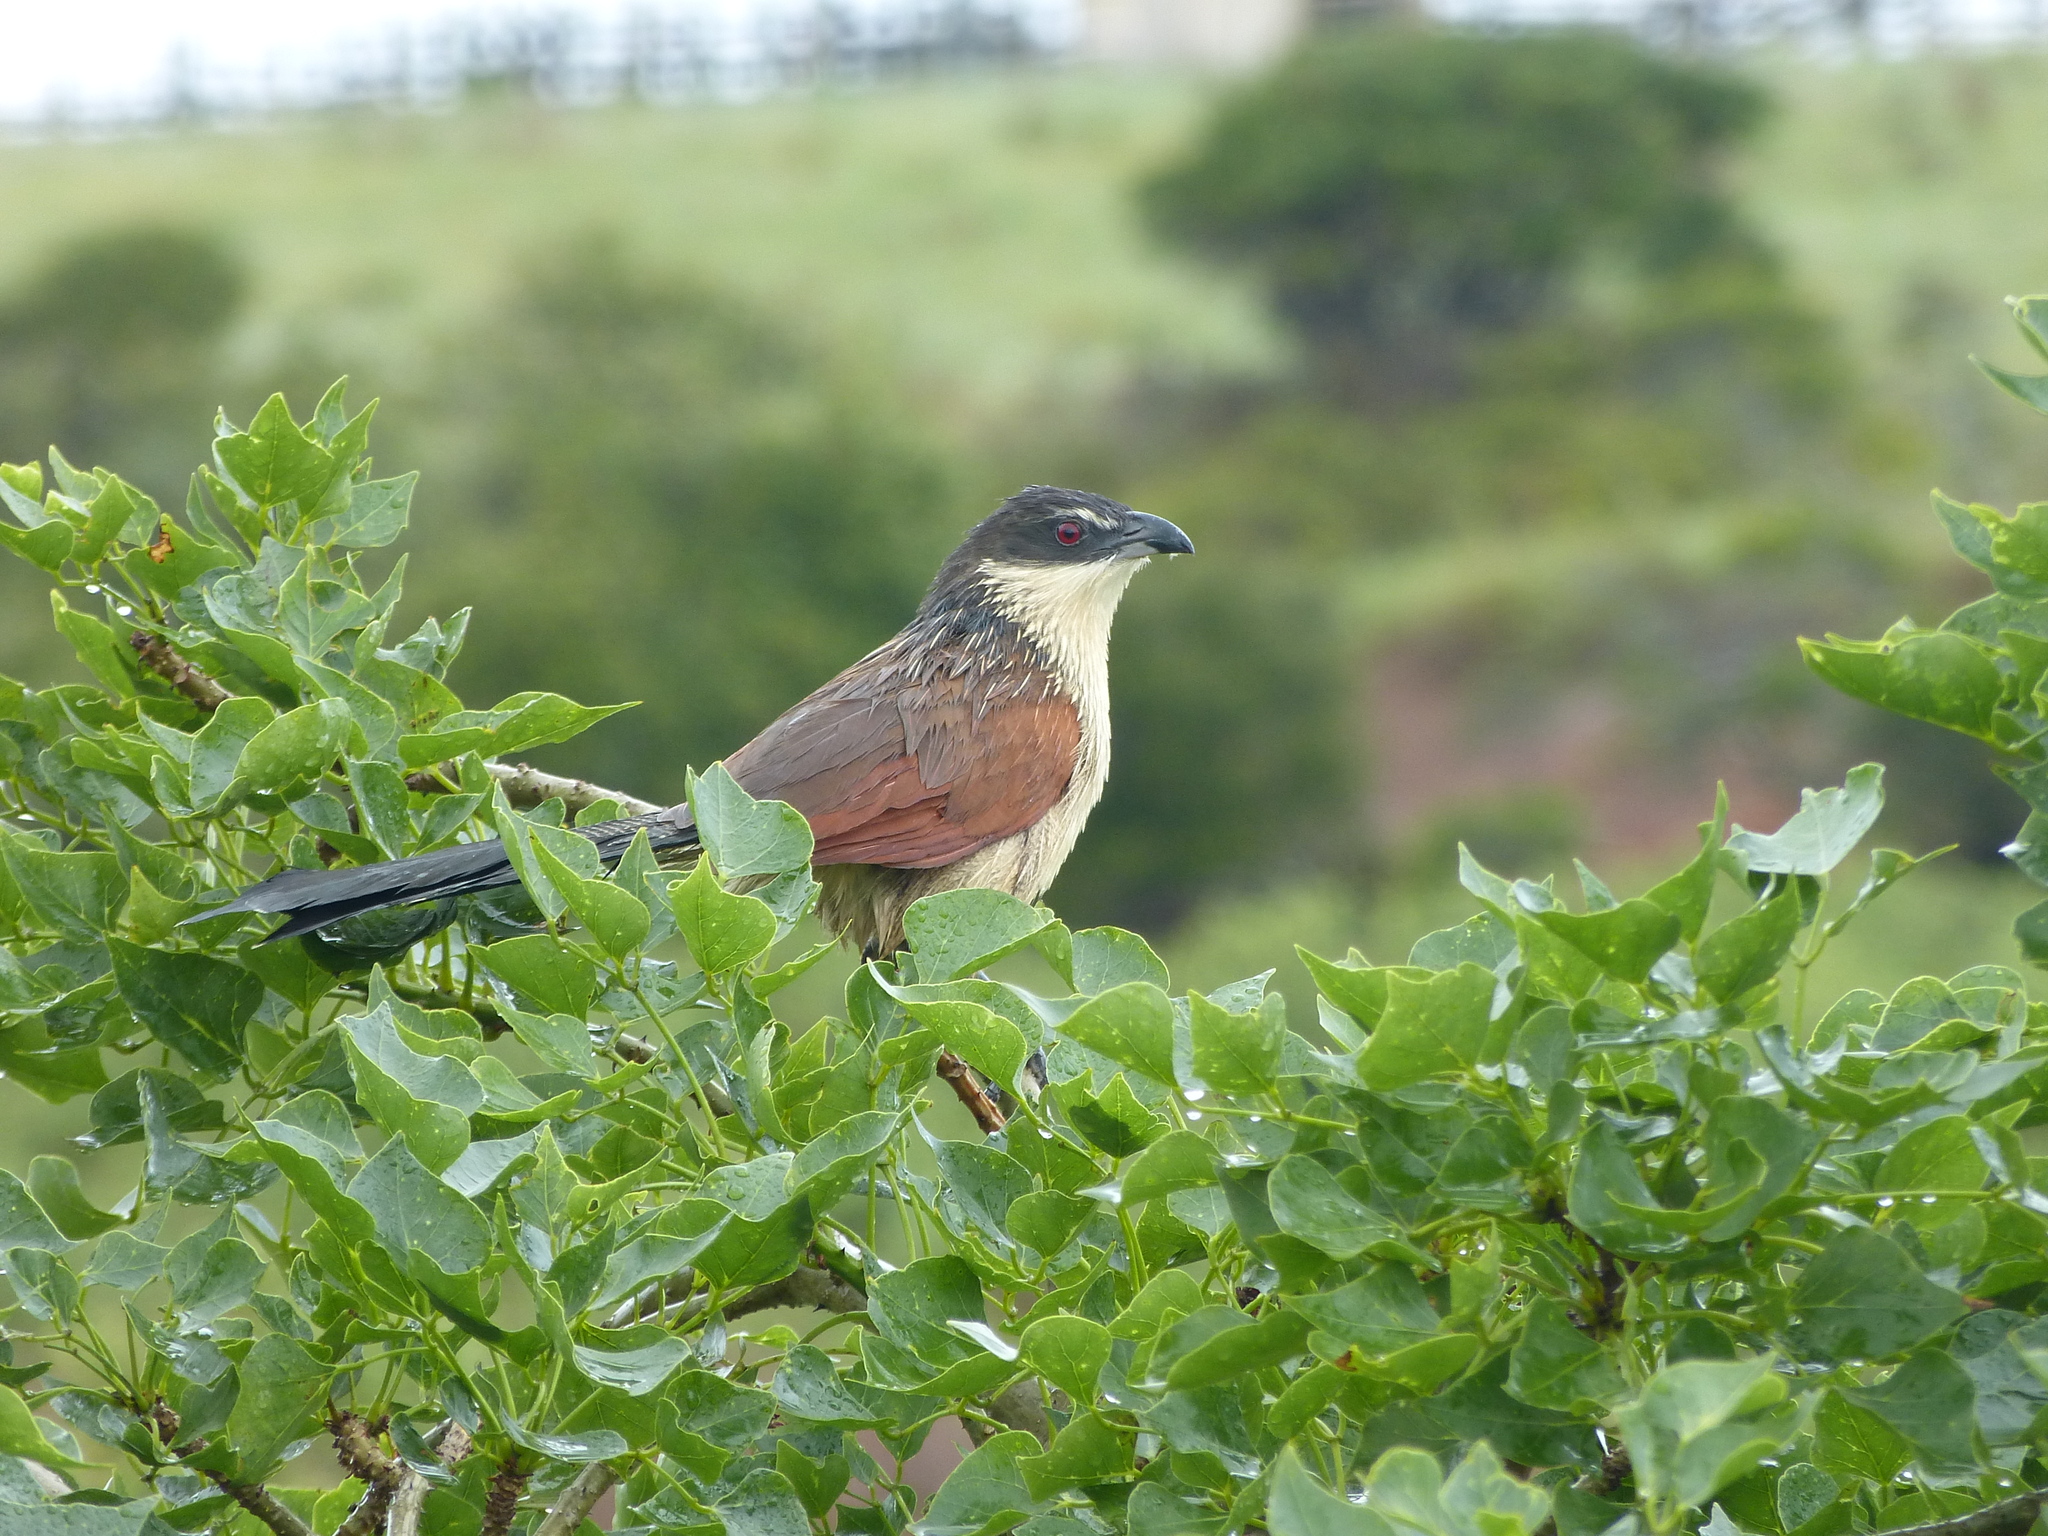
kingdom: Animalia
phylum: Chordata
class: Aves
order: Cuculiformes
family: Cuculidae
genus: Centropus
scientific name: Centropus superciliosus
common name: White-browed coucal
